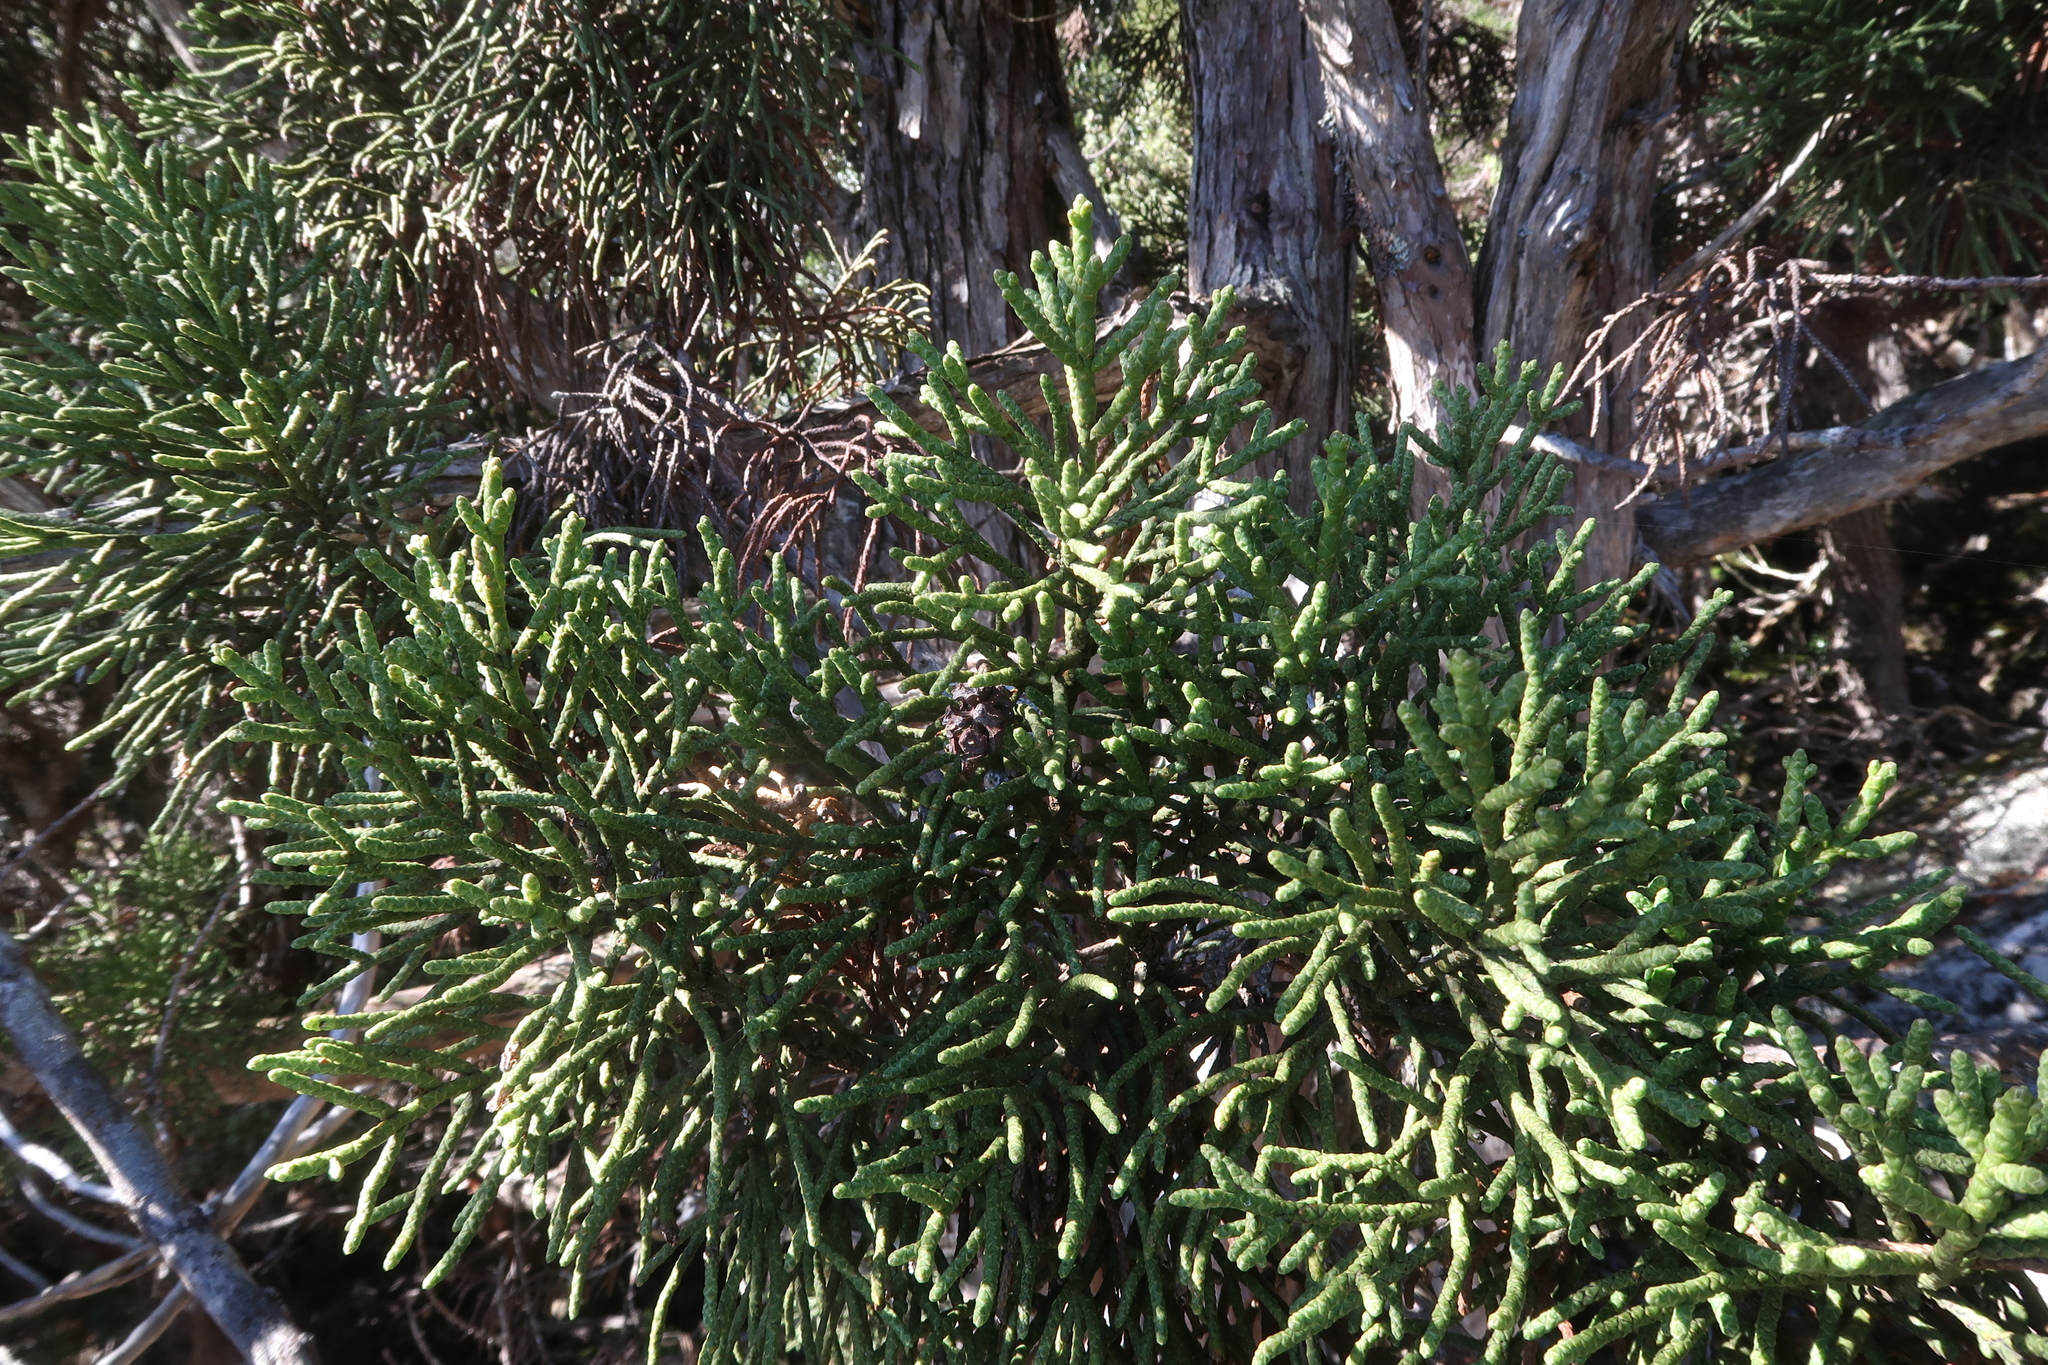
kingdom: Plantae
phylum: Tracheophyta
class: Pinopsida
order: Pinales
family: Cupressaceae
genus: Athrotaxis
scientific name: Athrotaxis cupressoides
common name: Tasmanian pencil pine
